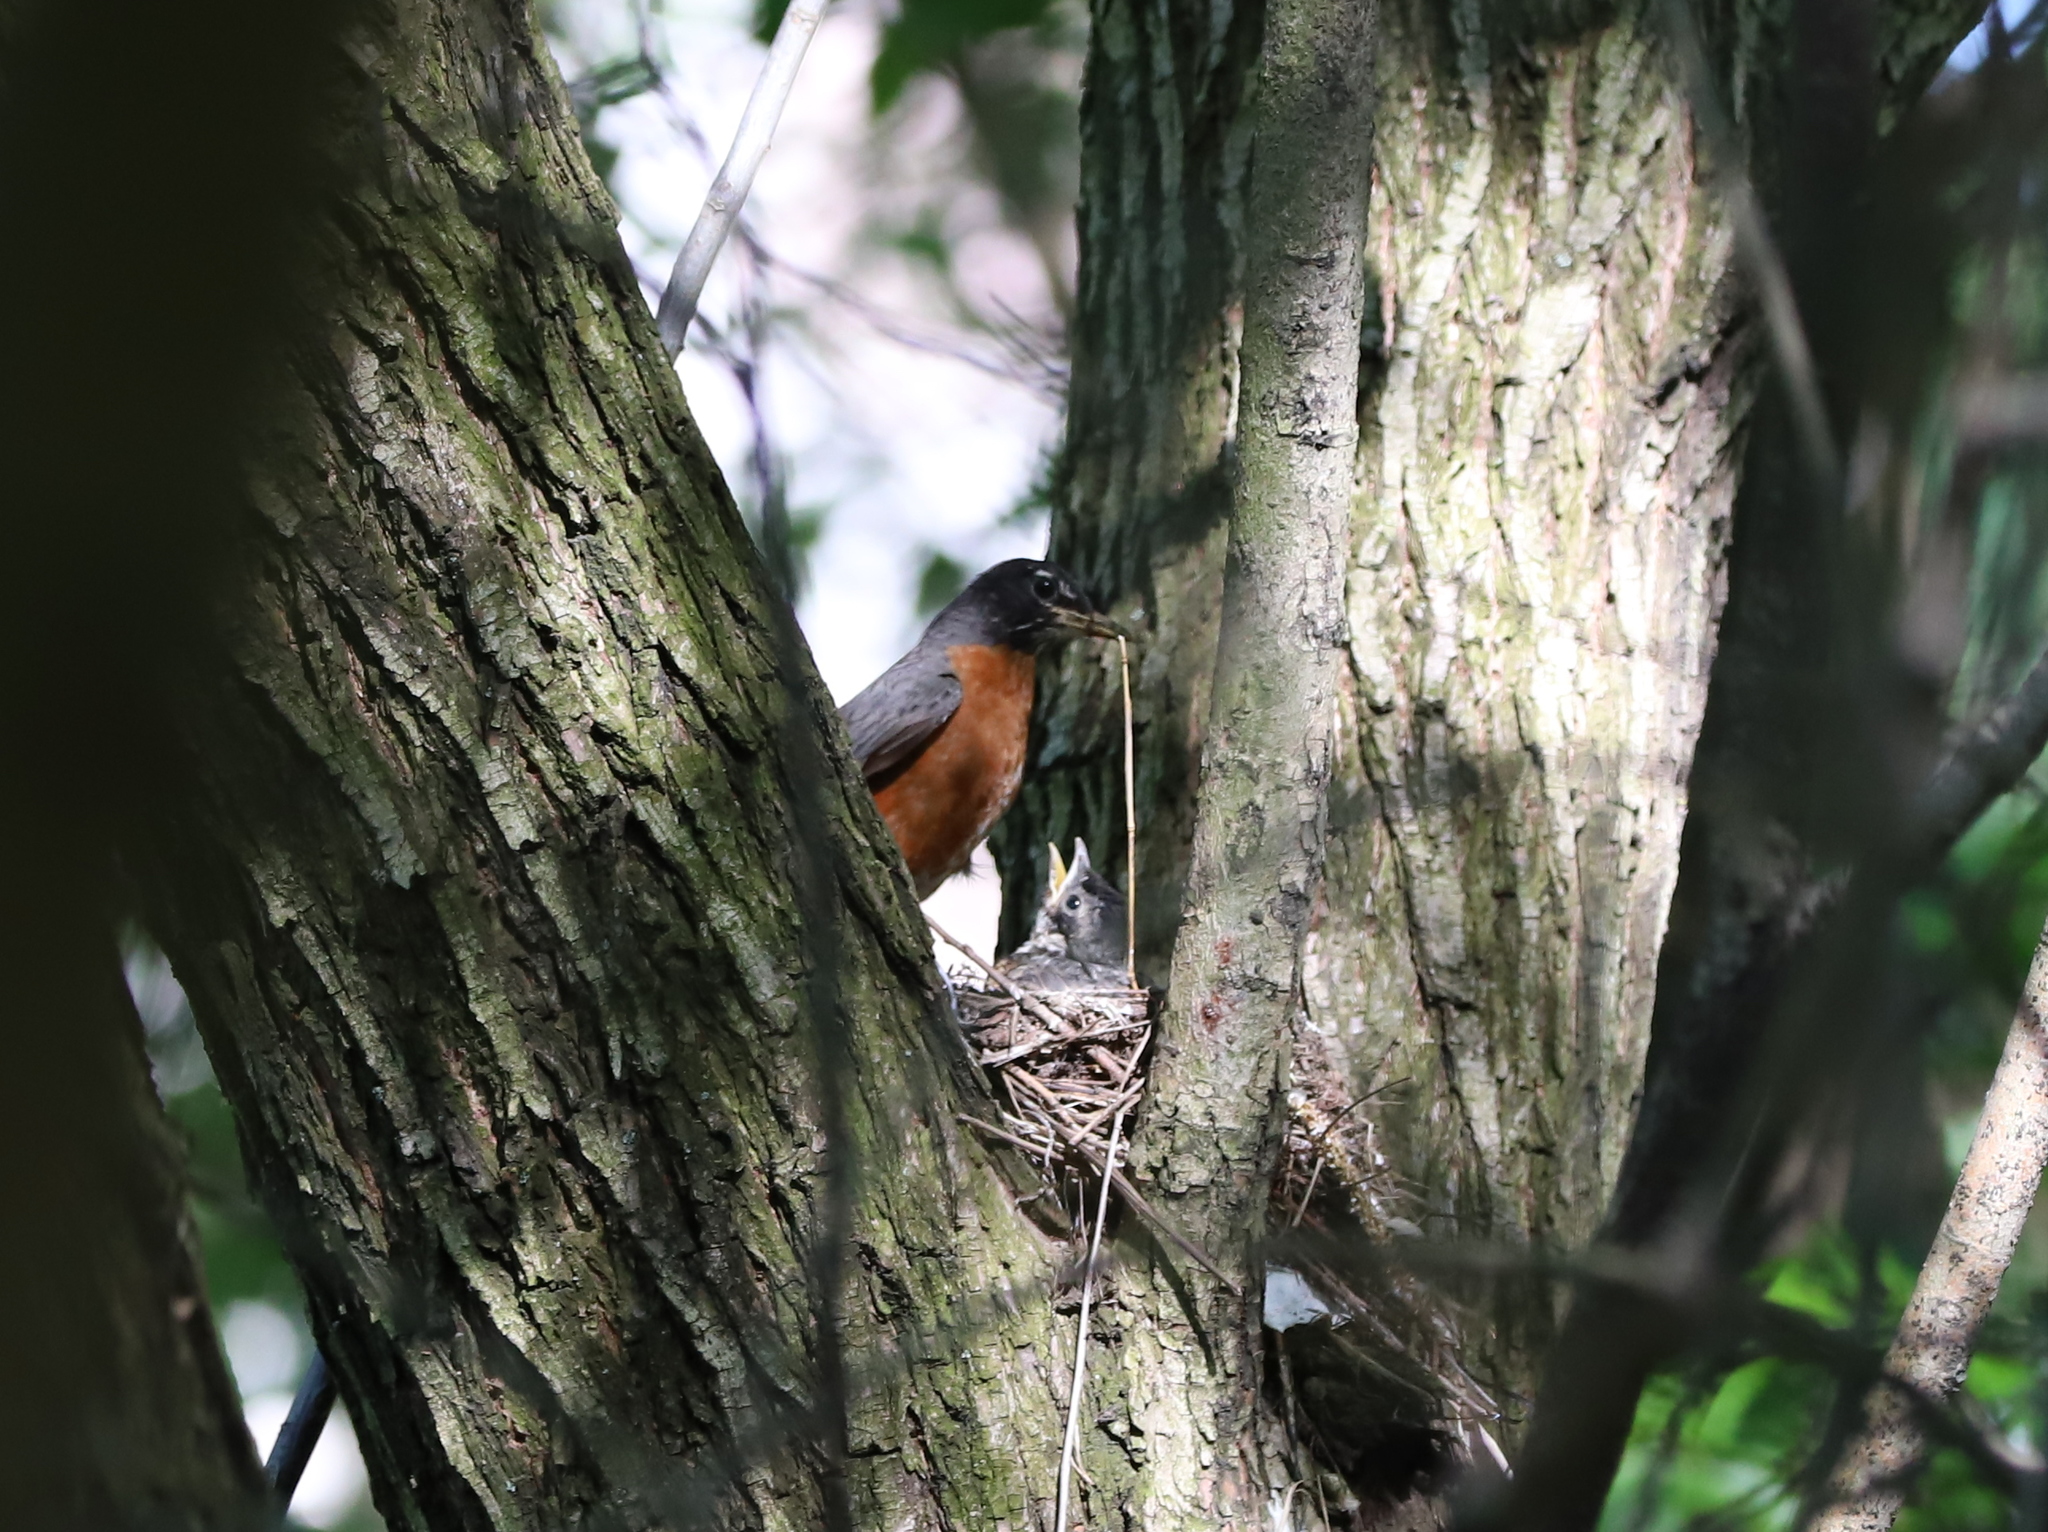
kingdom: Animalia
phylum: Chordata
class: Aves
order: Passeriformes
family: Turdidae
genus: Turdus
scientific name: Turdus migratorius
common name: American robin
